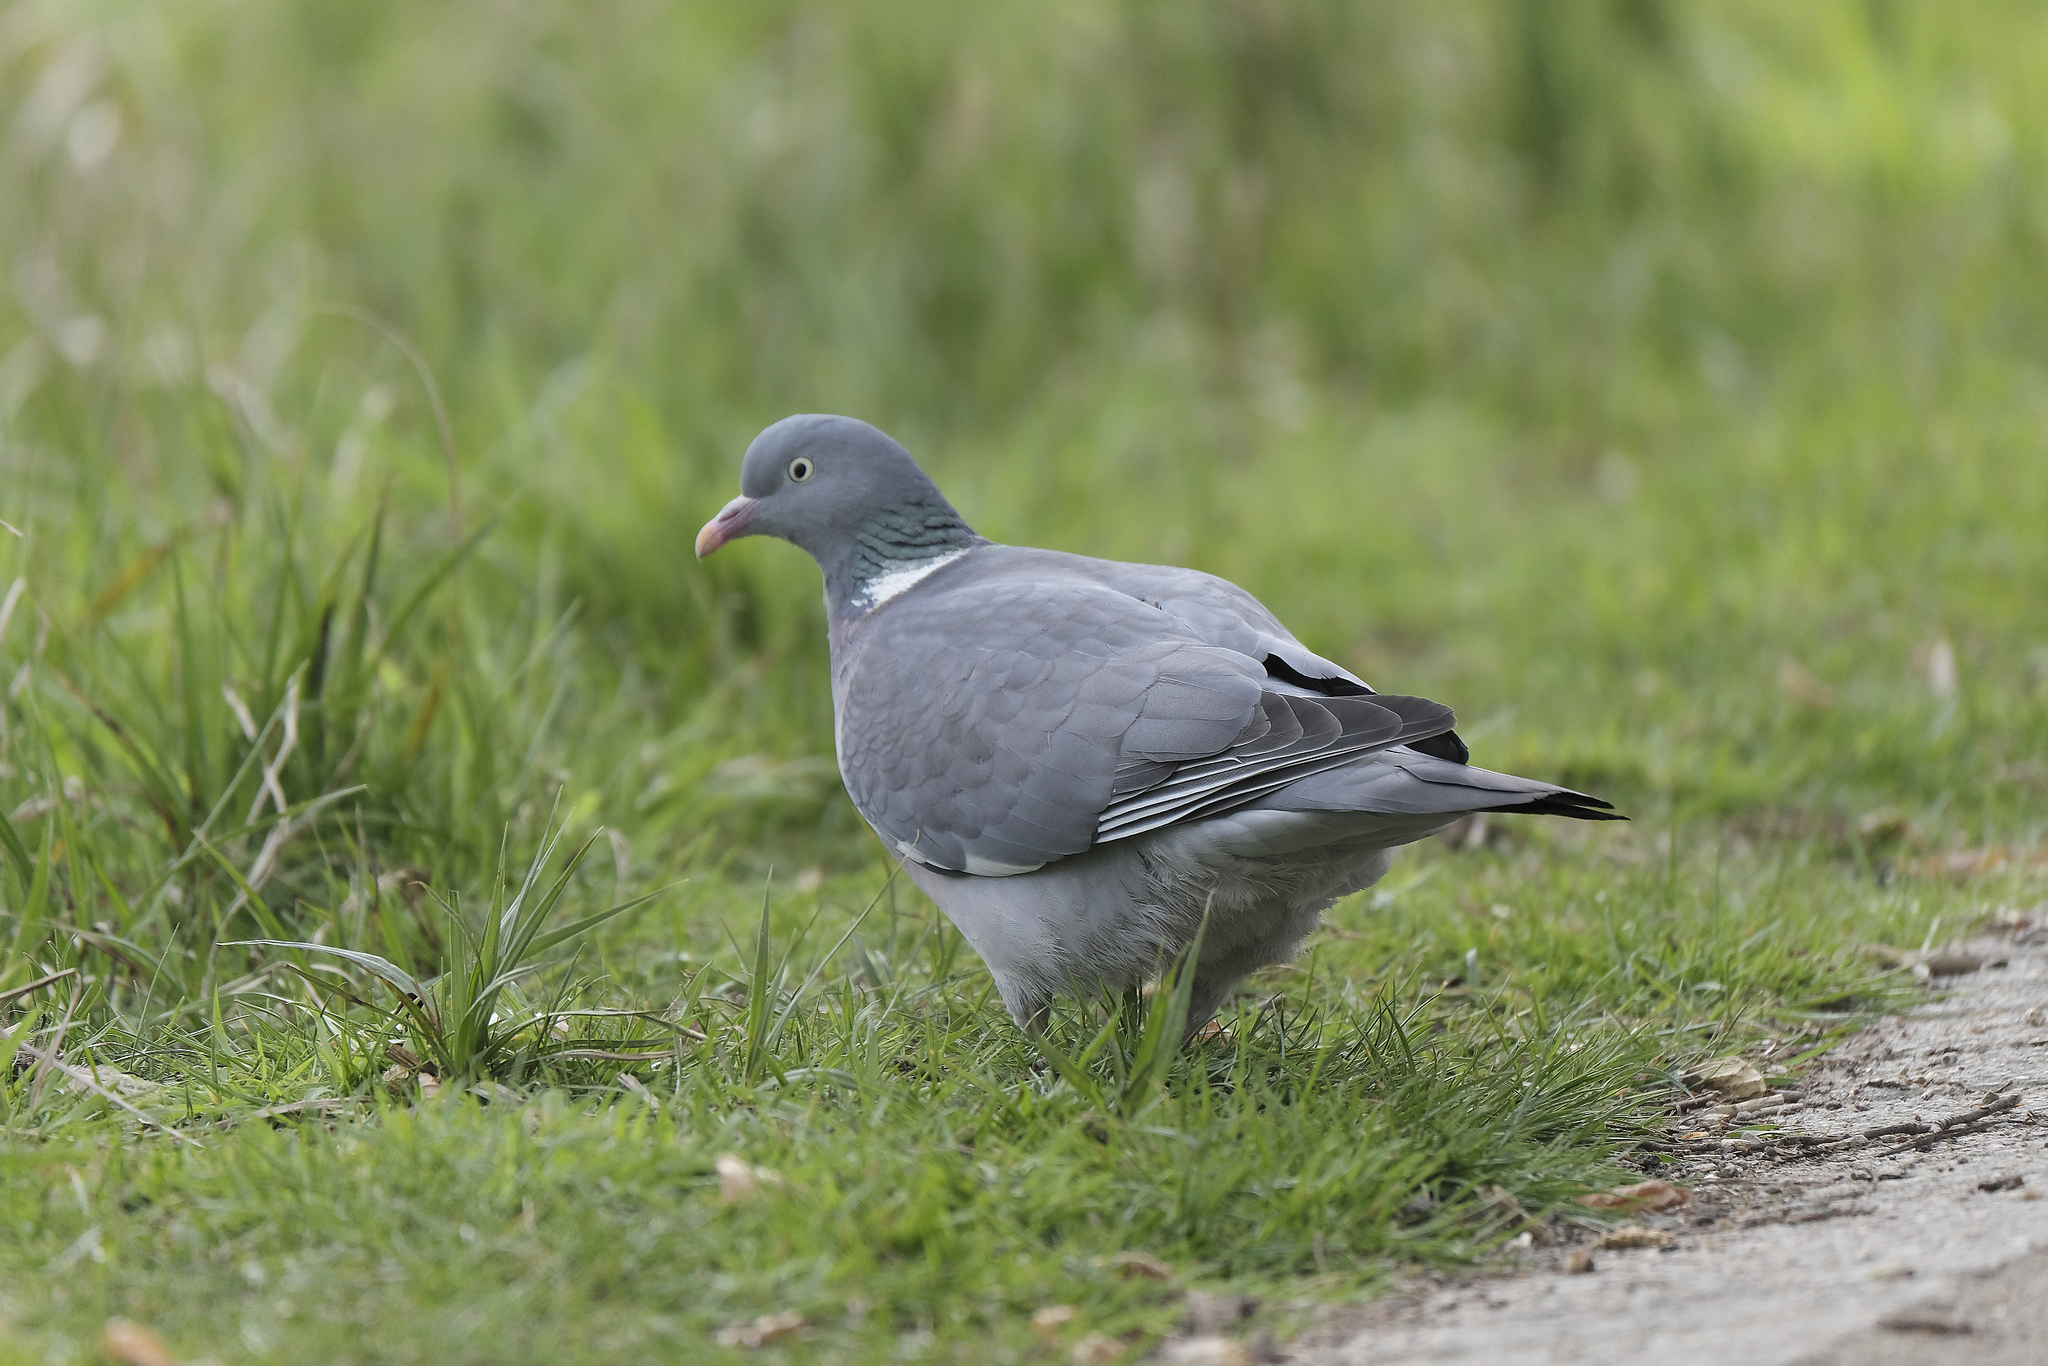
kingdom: Animalia
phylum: Chordata
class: Aves
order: Columbiformes
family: Columbidae
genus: Columba
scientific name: Columba palumbus
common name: Common wood pigeon
